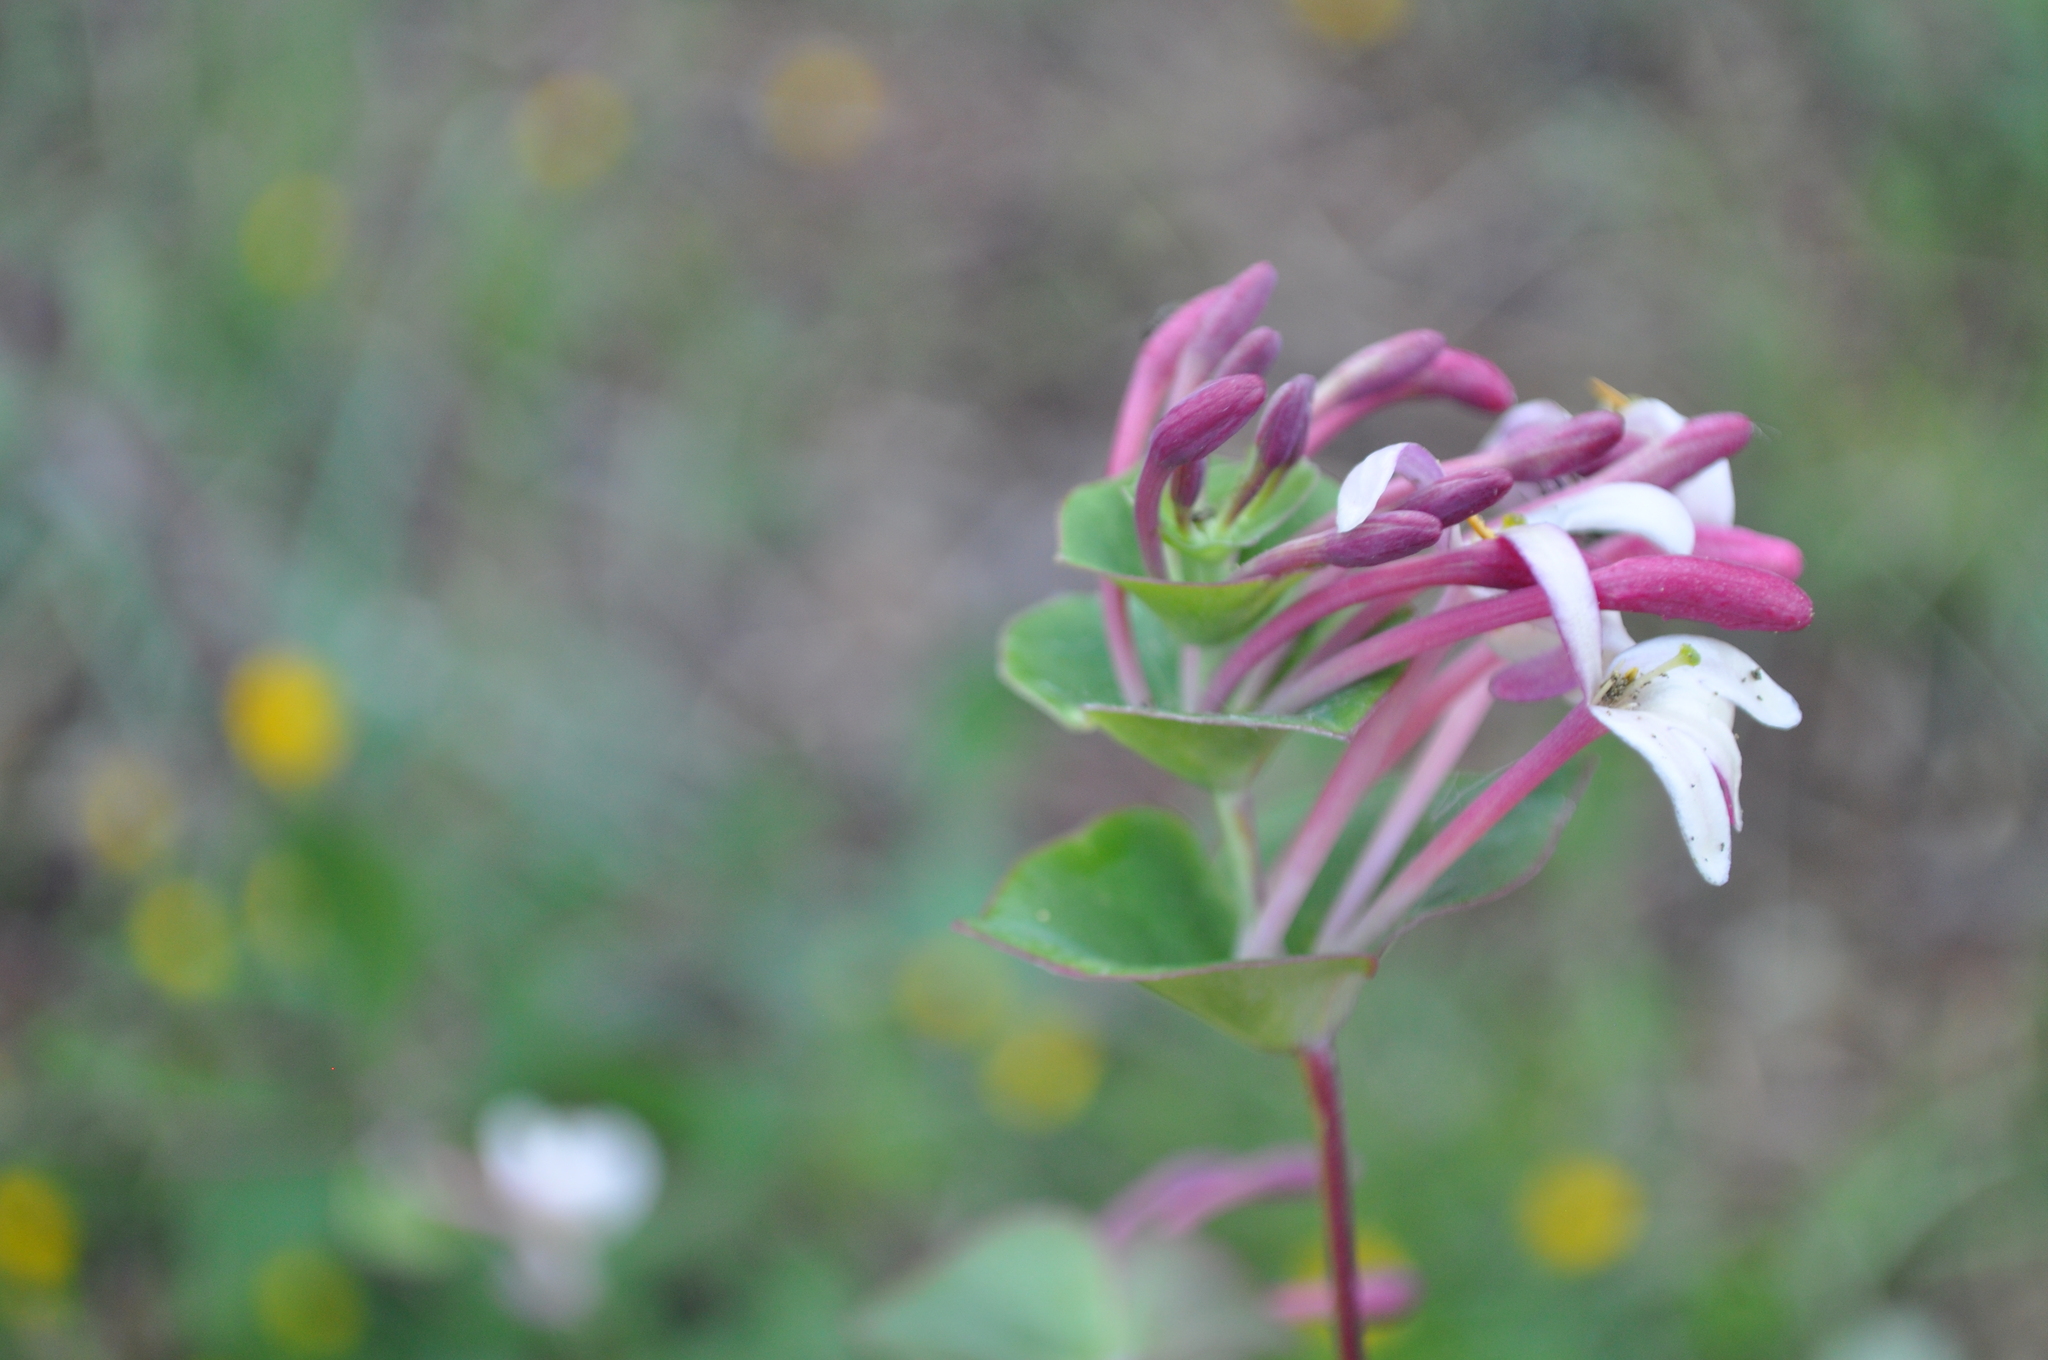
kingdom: Plantae
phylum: Tracheophyta
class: Magnoliopsida
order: Dipsacales
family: Caprifoliaceae
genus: Lonicera
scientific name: Lonicera implexa
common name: Minorca honeysuckle
